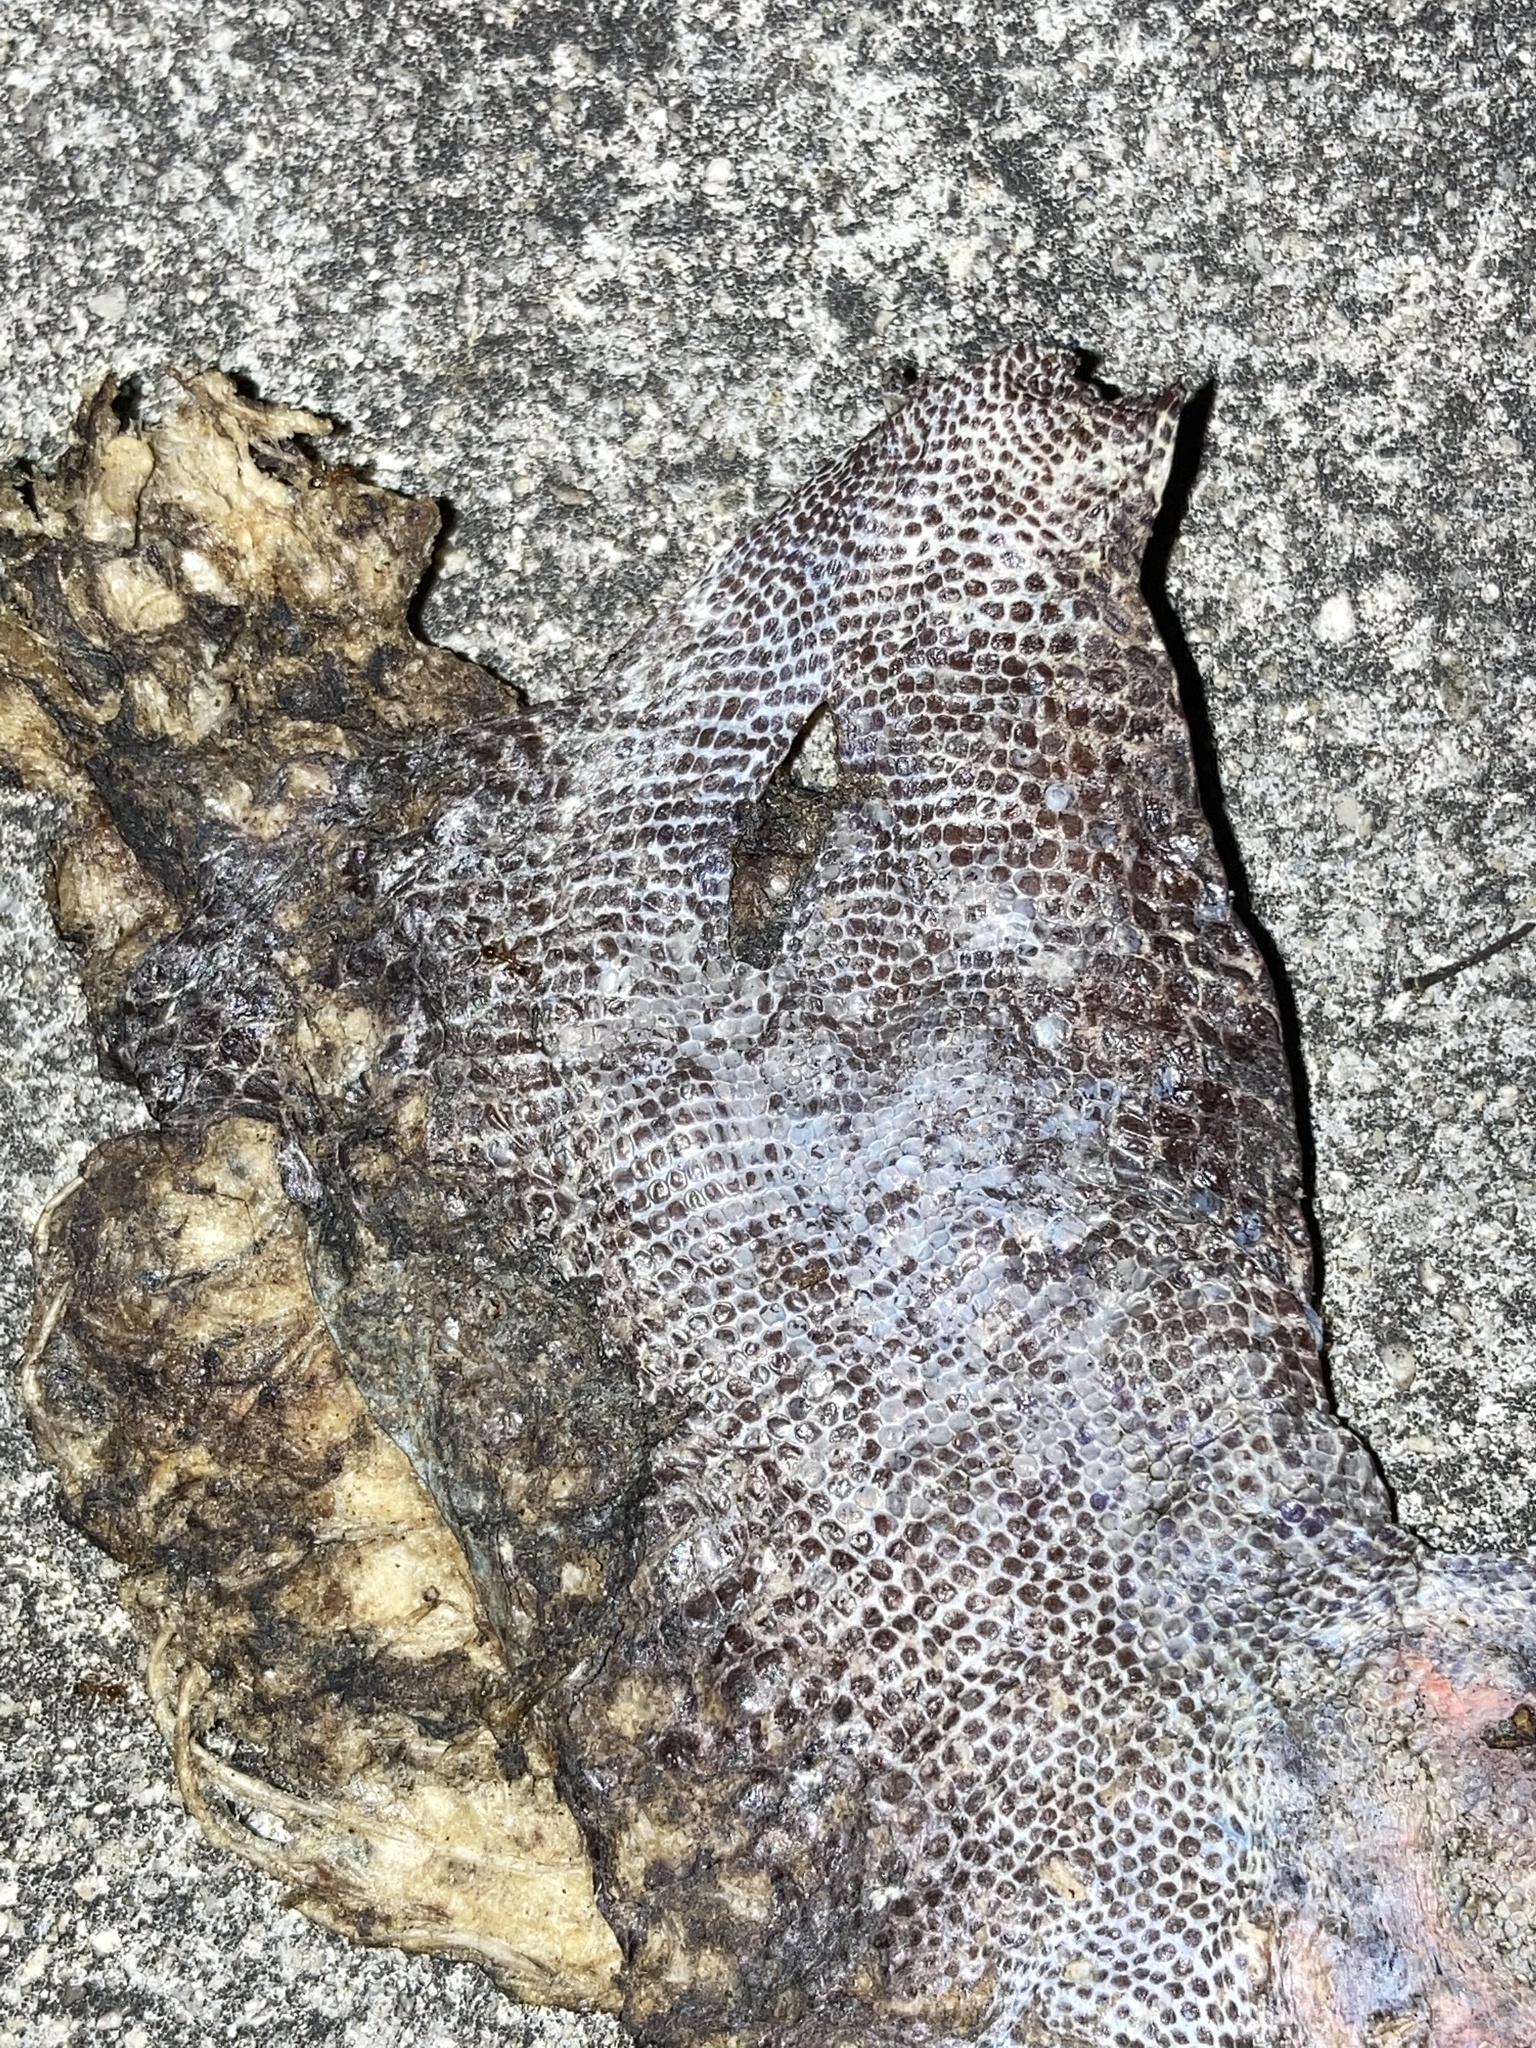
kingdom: Animalia
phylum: Chordata
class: Squamata
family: Iguanidae
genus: Iguana
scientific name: Iguana iguana
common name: Green iguana
